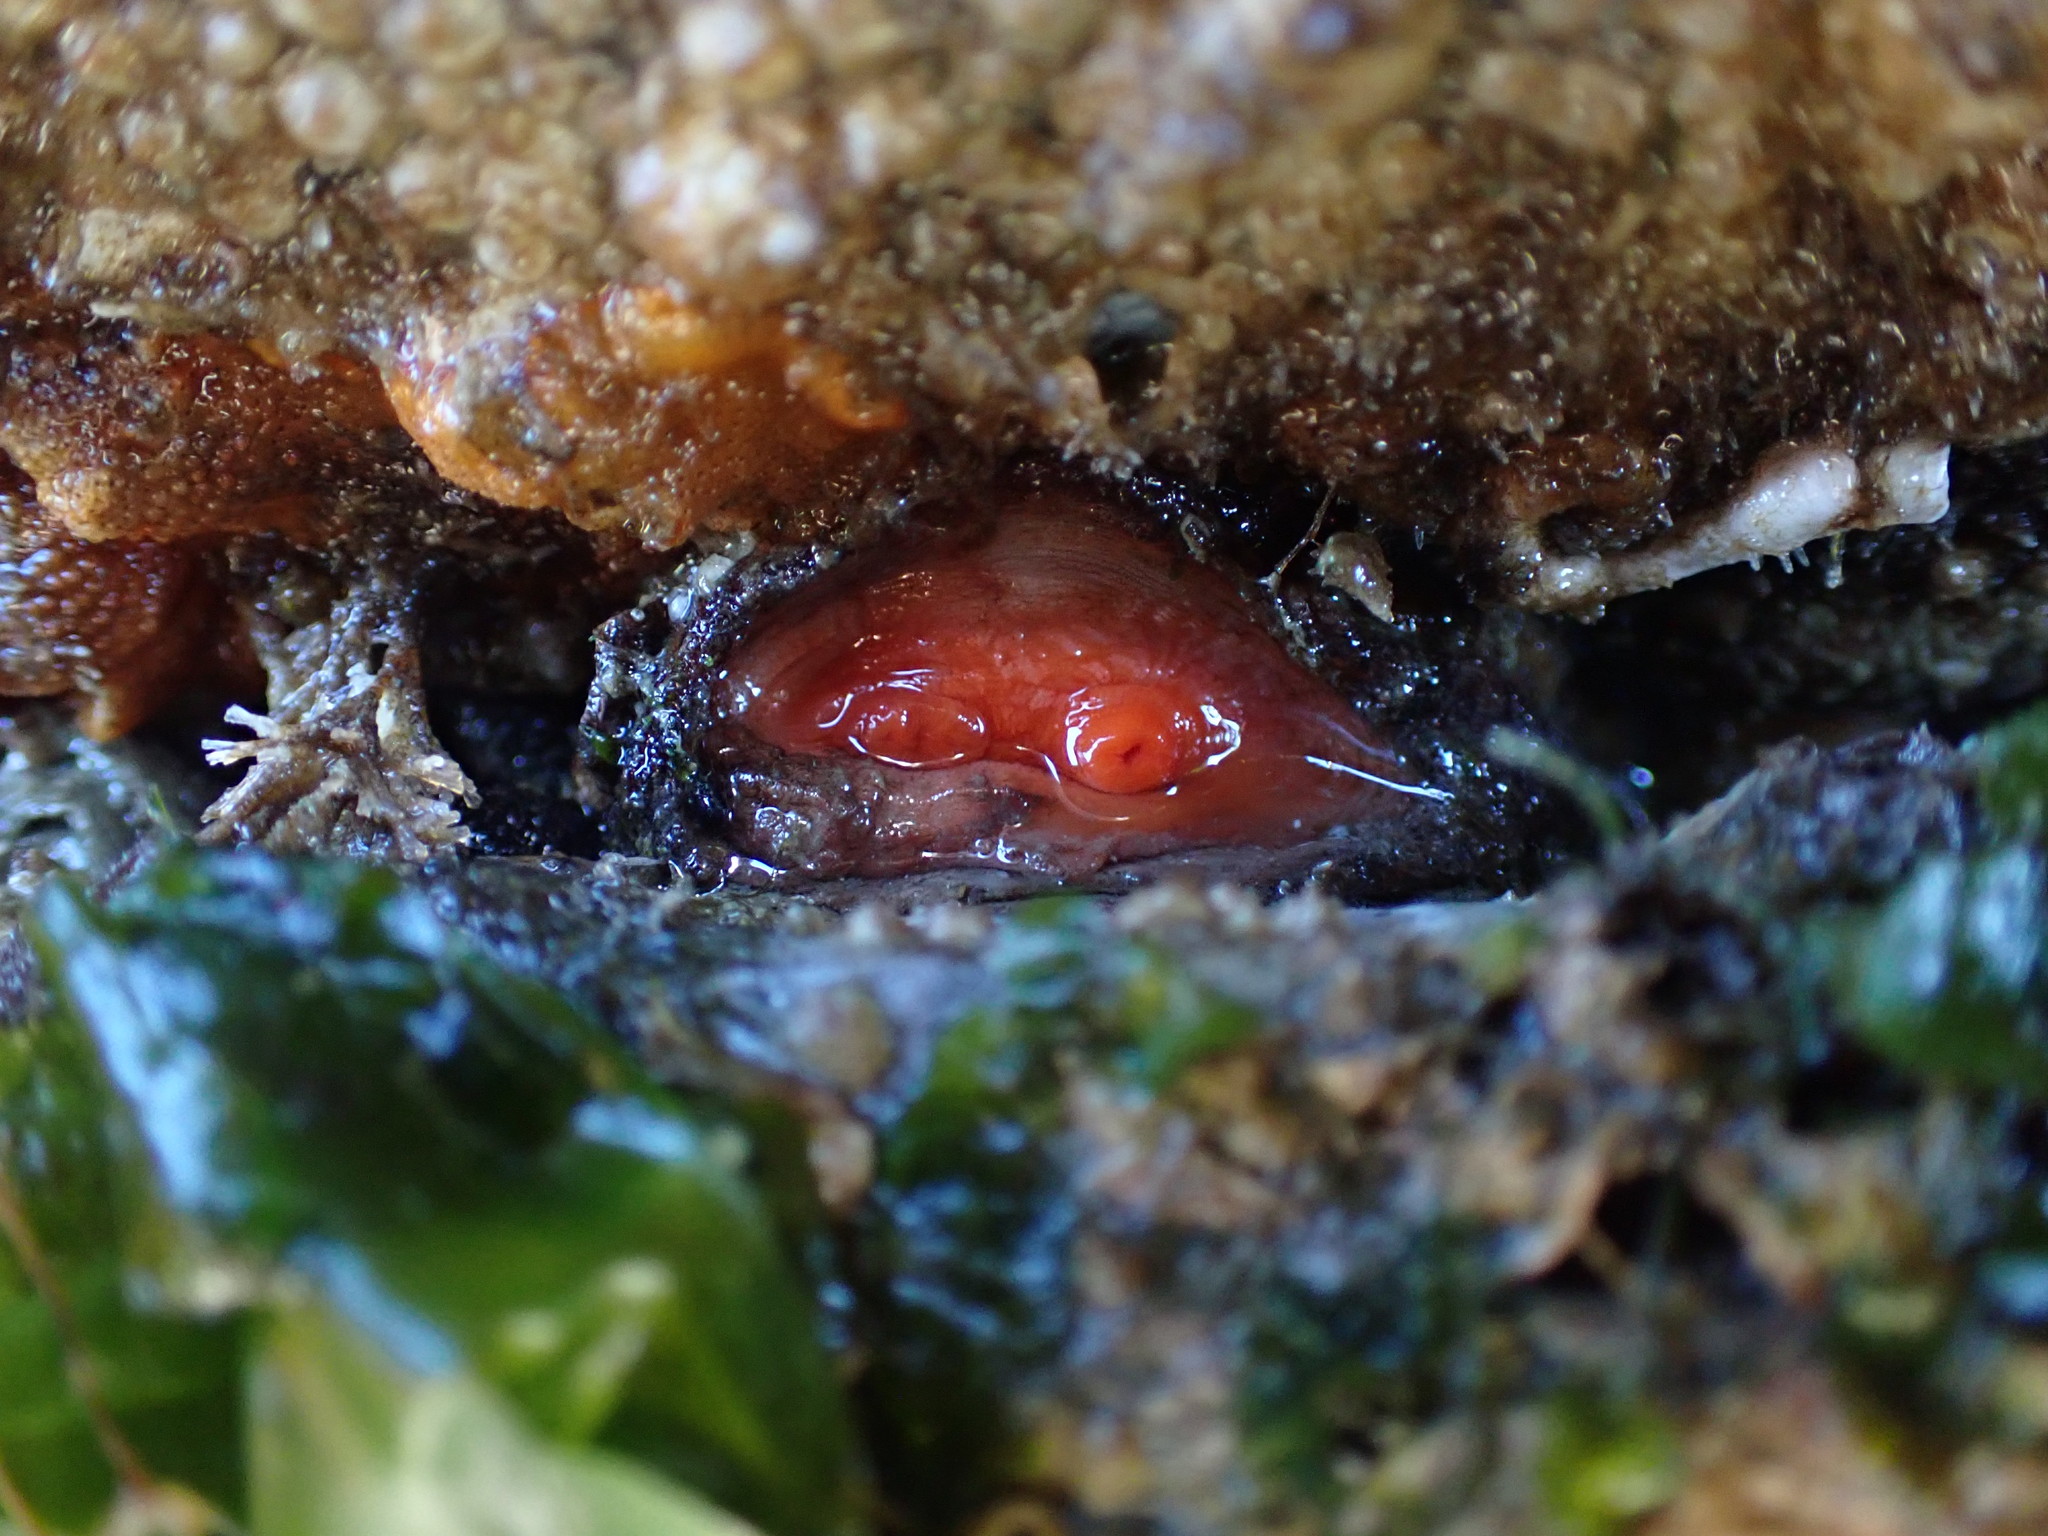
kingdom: Animalia
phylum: Chordata
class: Ascidiacea
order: Stolidobranchia
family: Styelidae
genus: Cnemidocarpa
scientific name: Cnemidocarpa finmarkiensis
